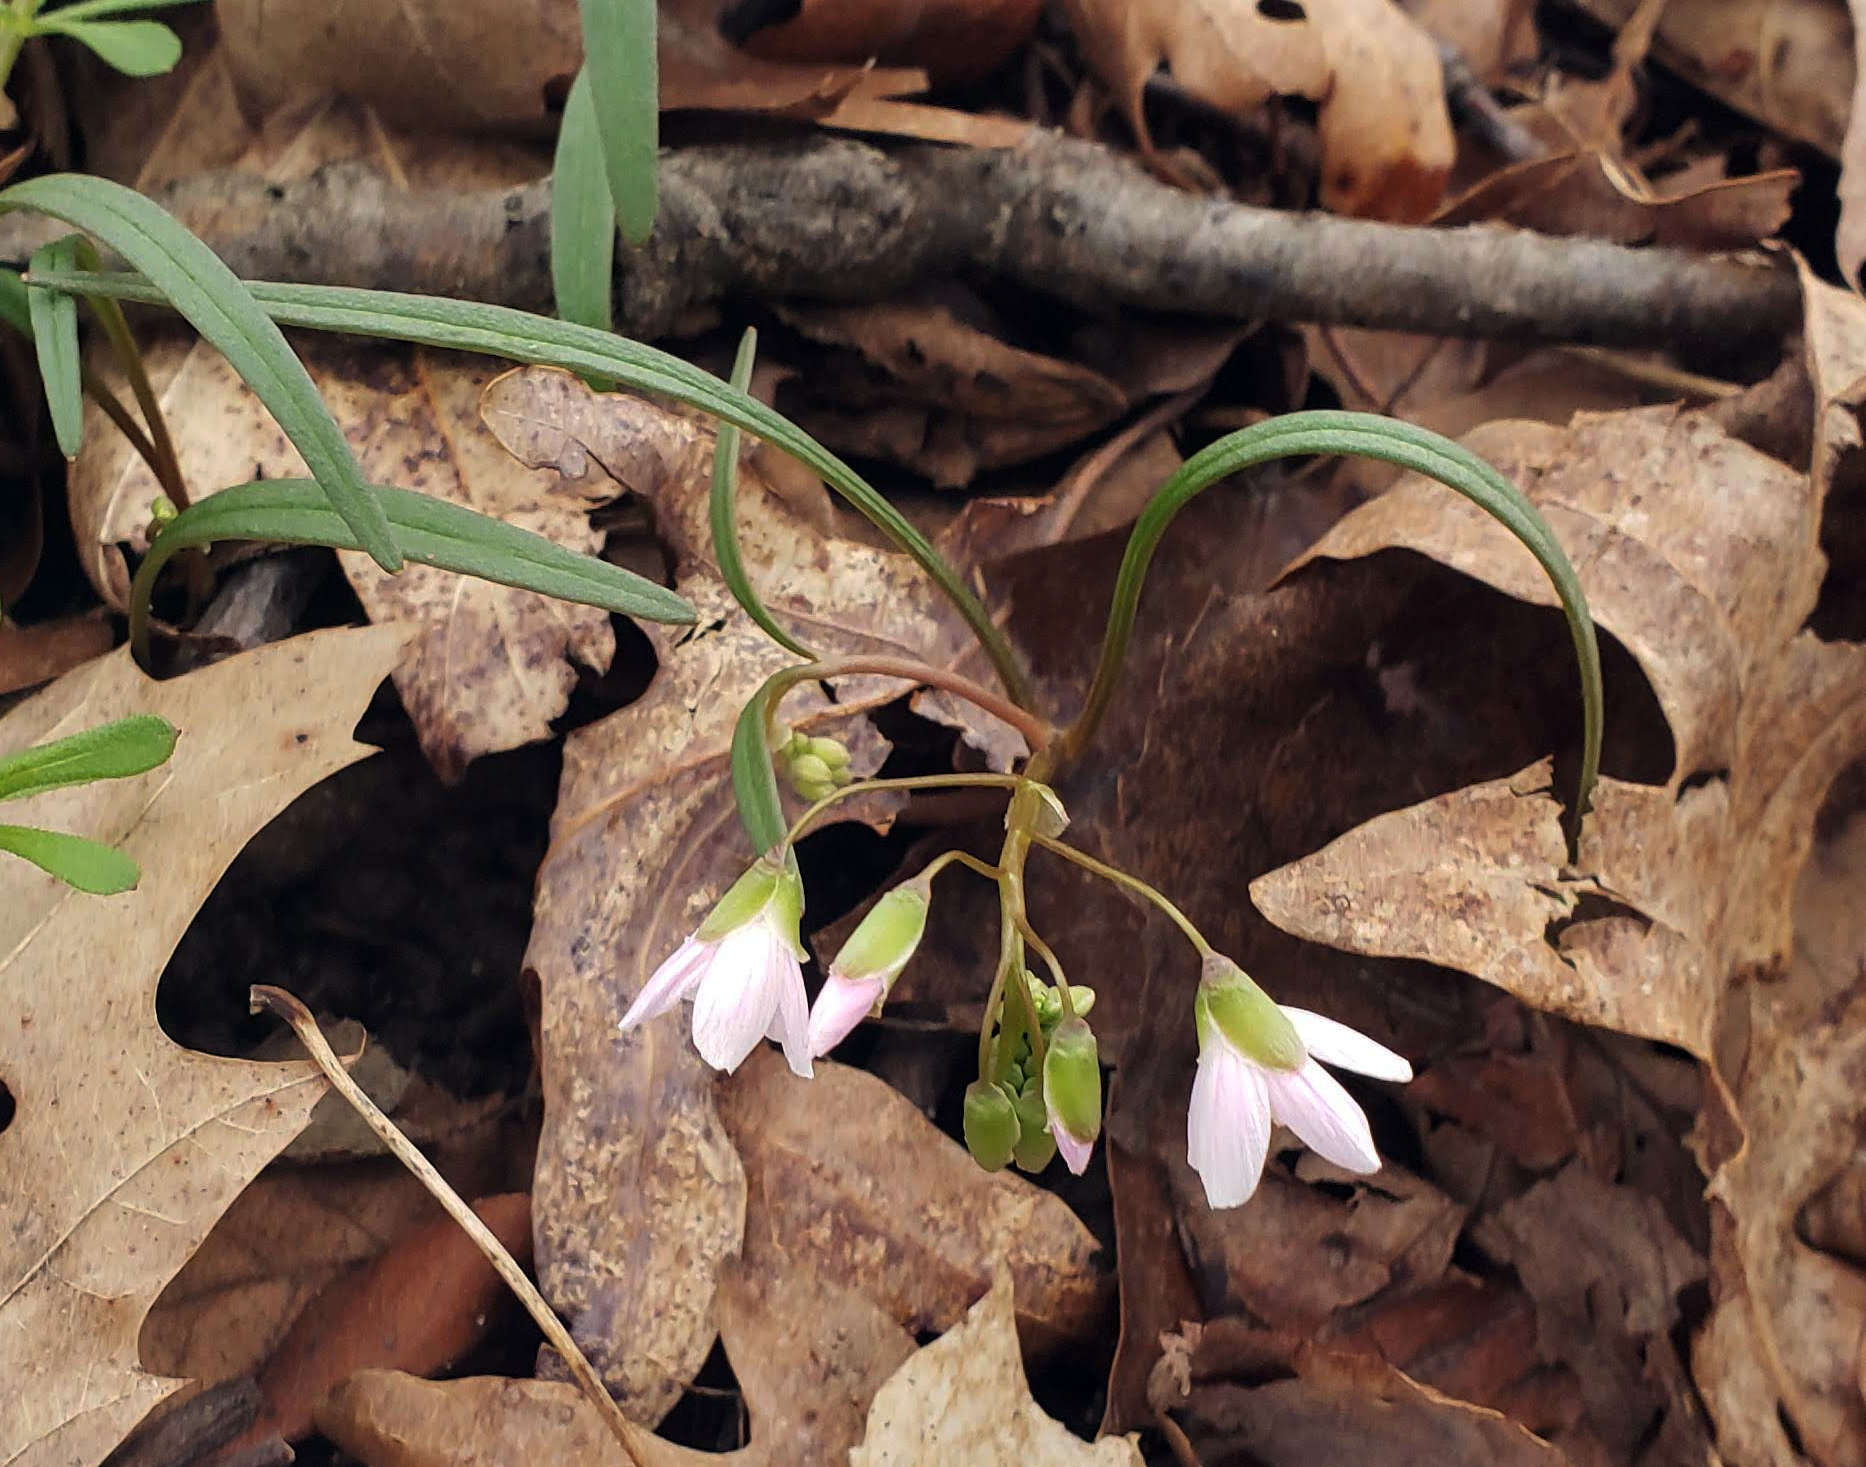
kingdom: Plantae
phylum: Tracheophyta
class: Magnoliopsida
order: Caryophyllales
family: Montiaceae
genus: Claytonia
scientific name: Claytonia virginica
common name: Virginia springbeauty
